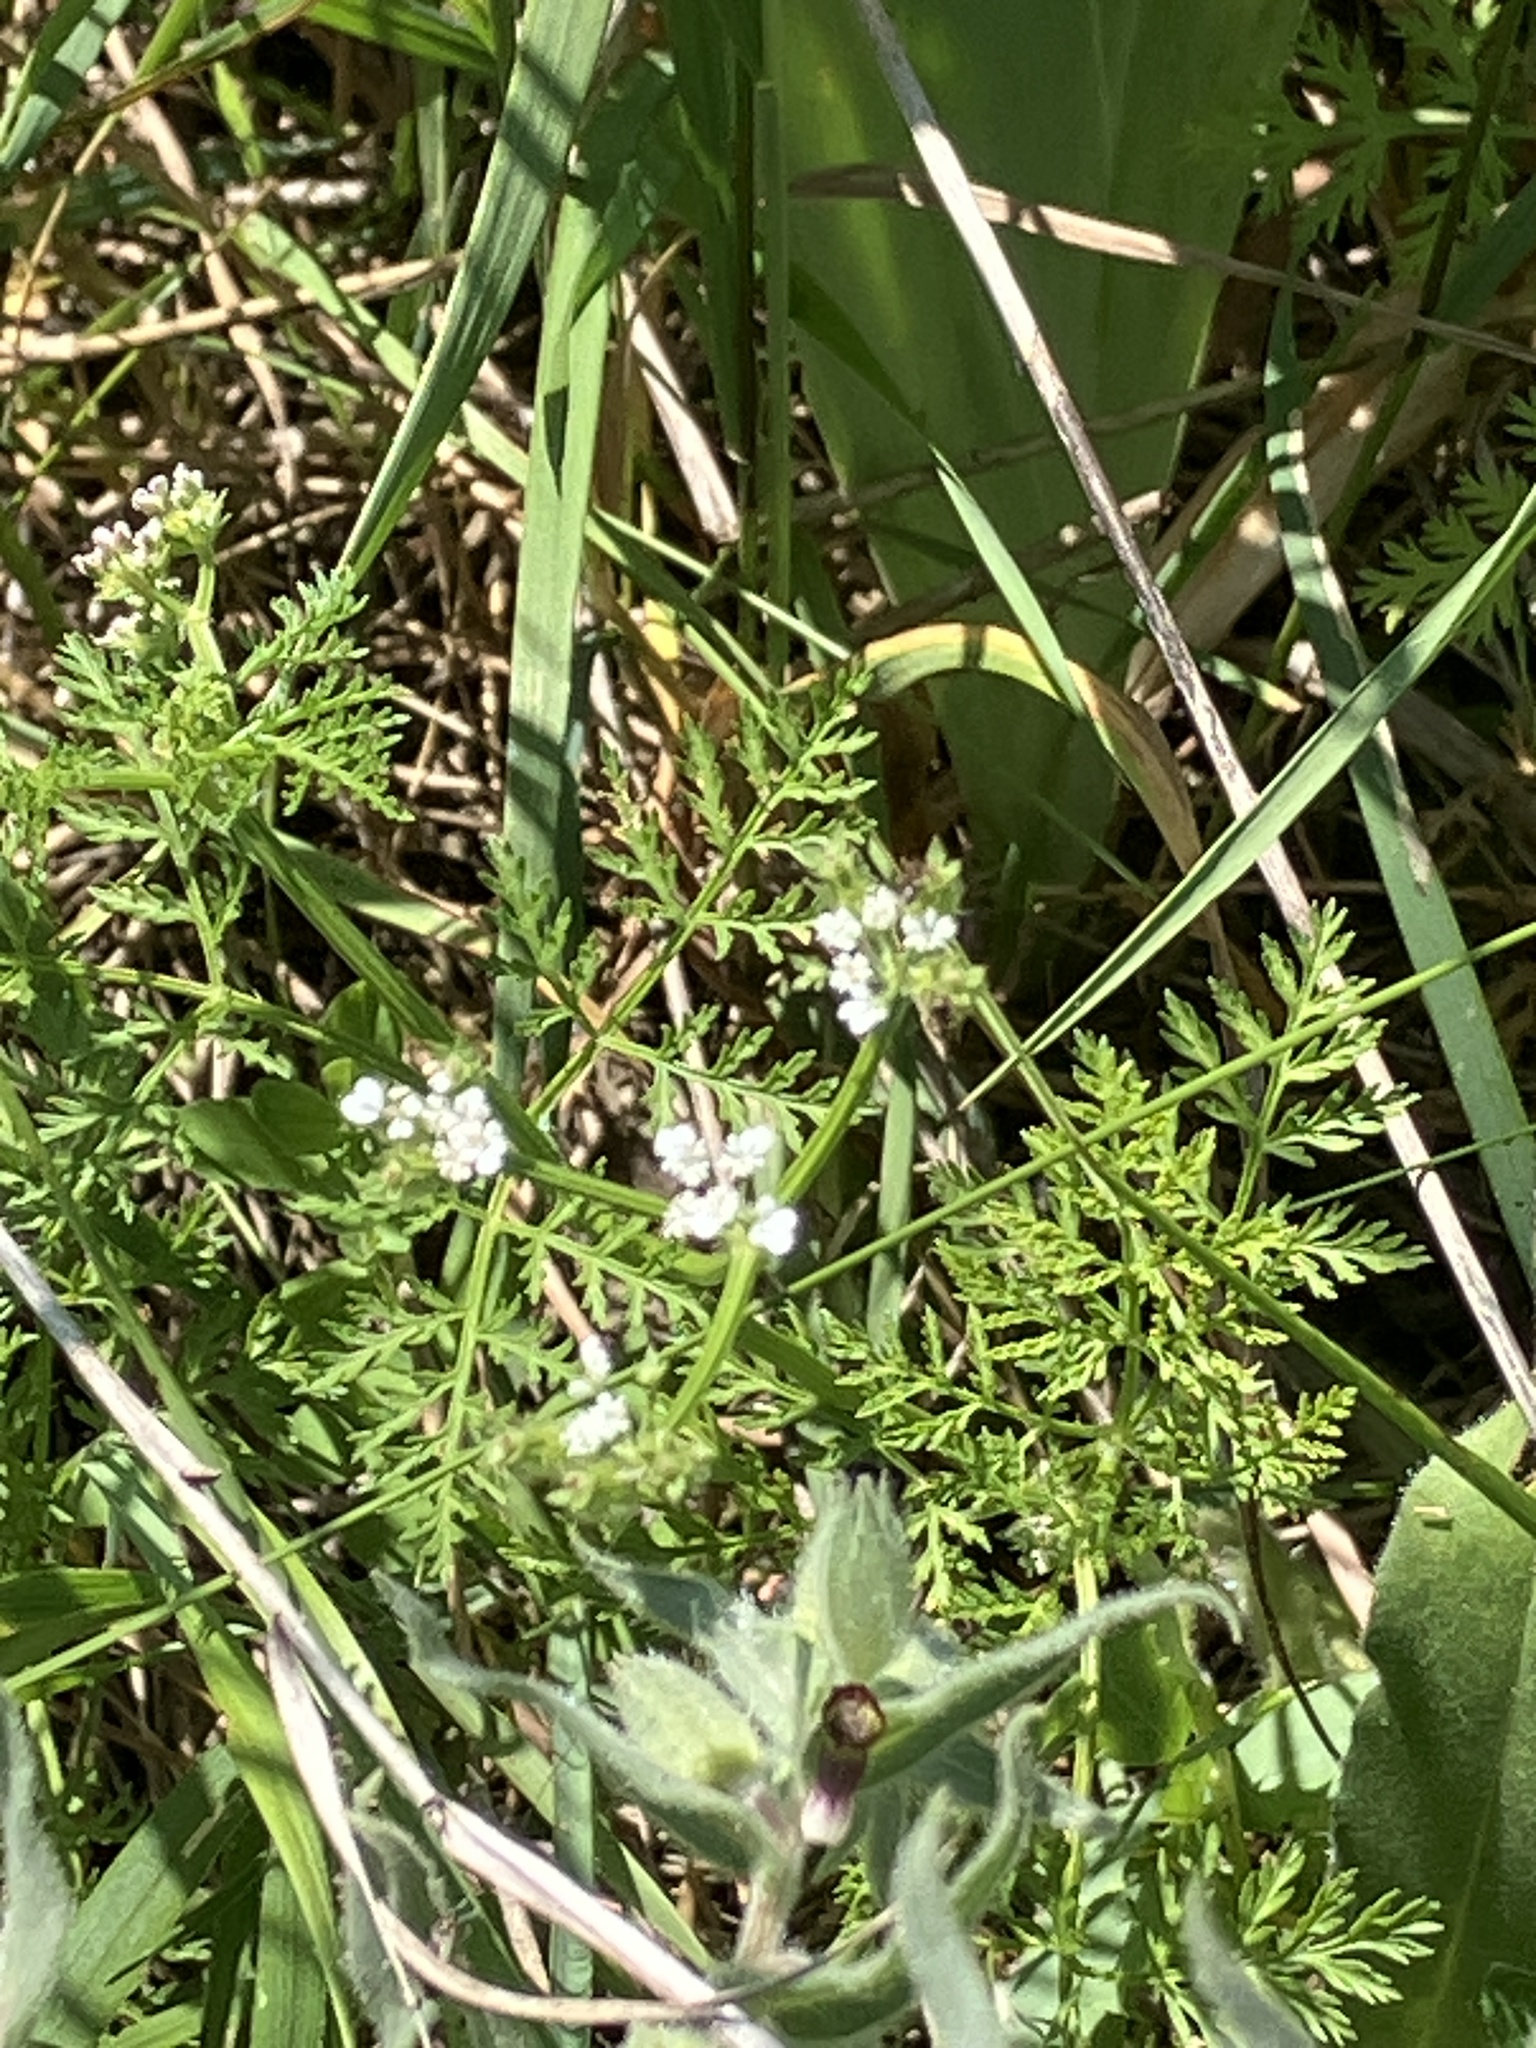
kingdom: Plantae
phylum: Tracheophyta
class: Magnoliopsida
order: Apiales
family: Apiaceae
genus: Caucalis
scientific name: Caucalis platycarpos
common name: Small bur-parsley
